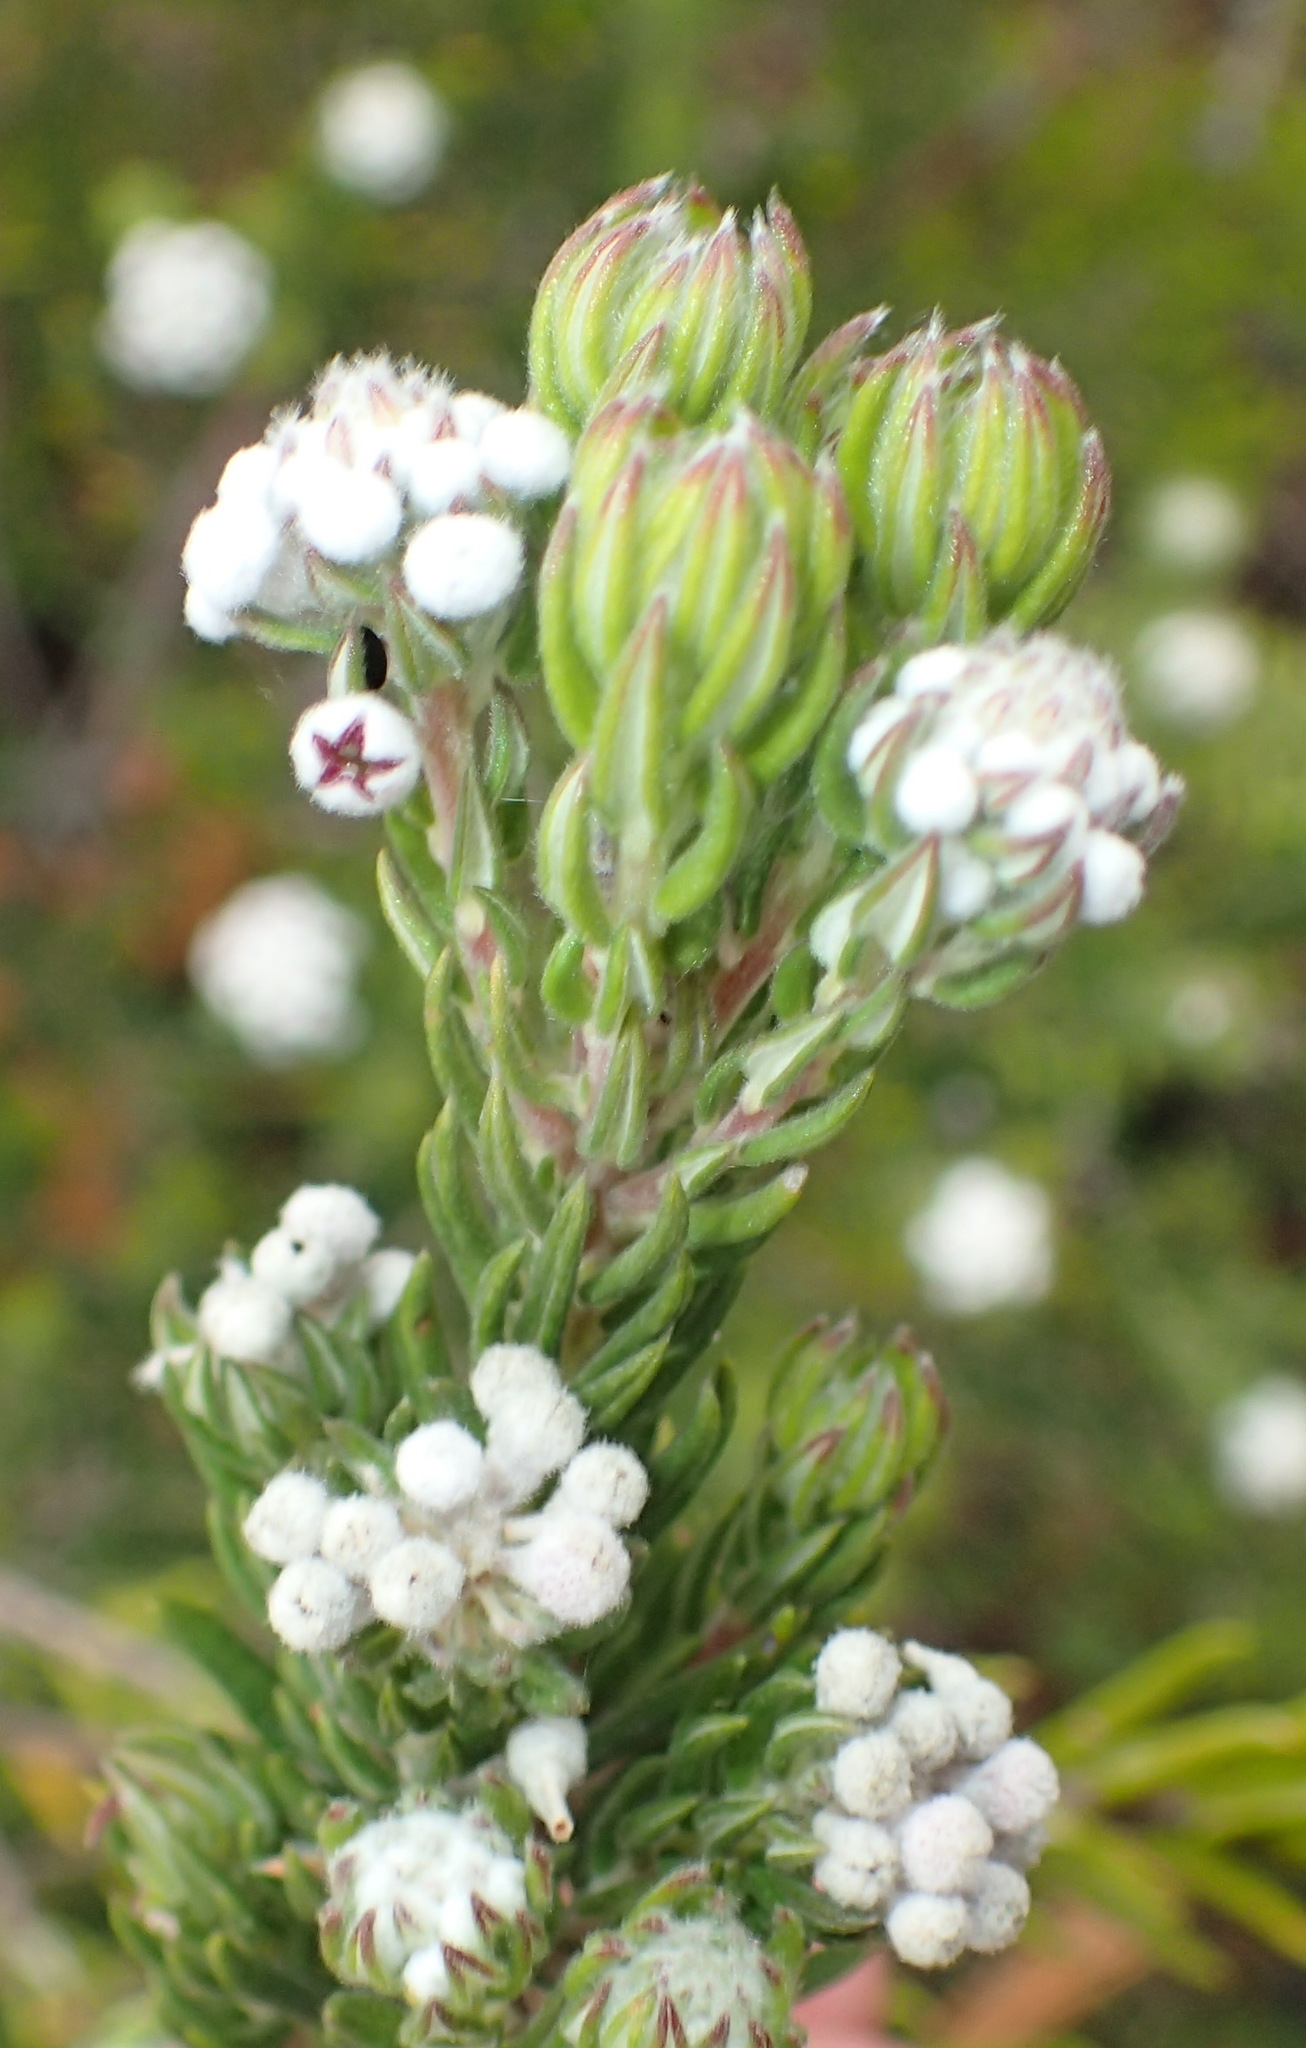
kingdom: Plantae
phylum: Tracheophyta
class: Magnoliopsida
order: Rosales
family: Rhamnaceae
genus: Phylica
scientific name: Phylica pinea
